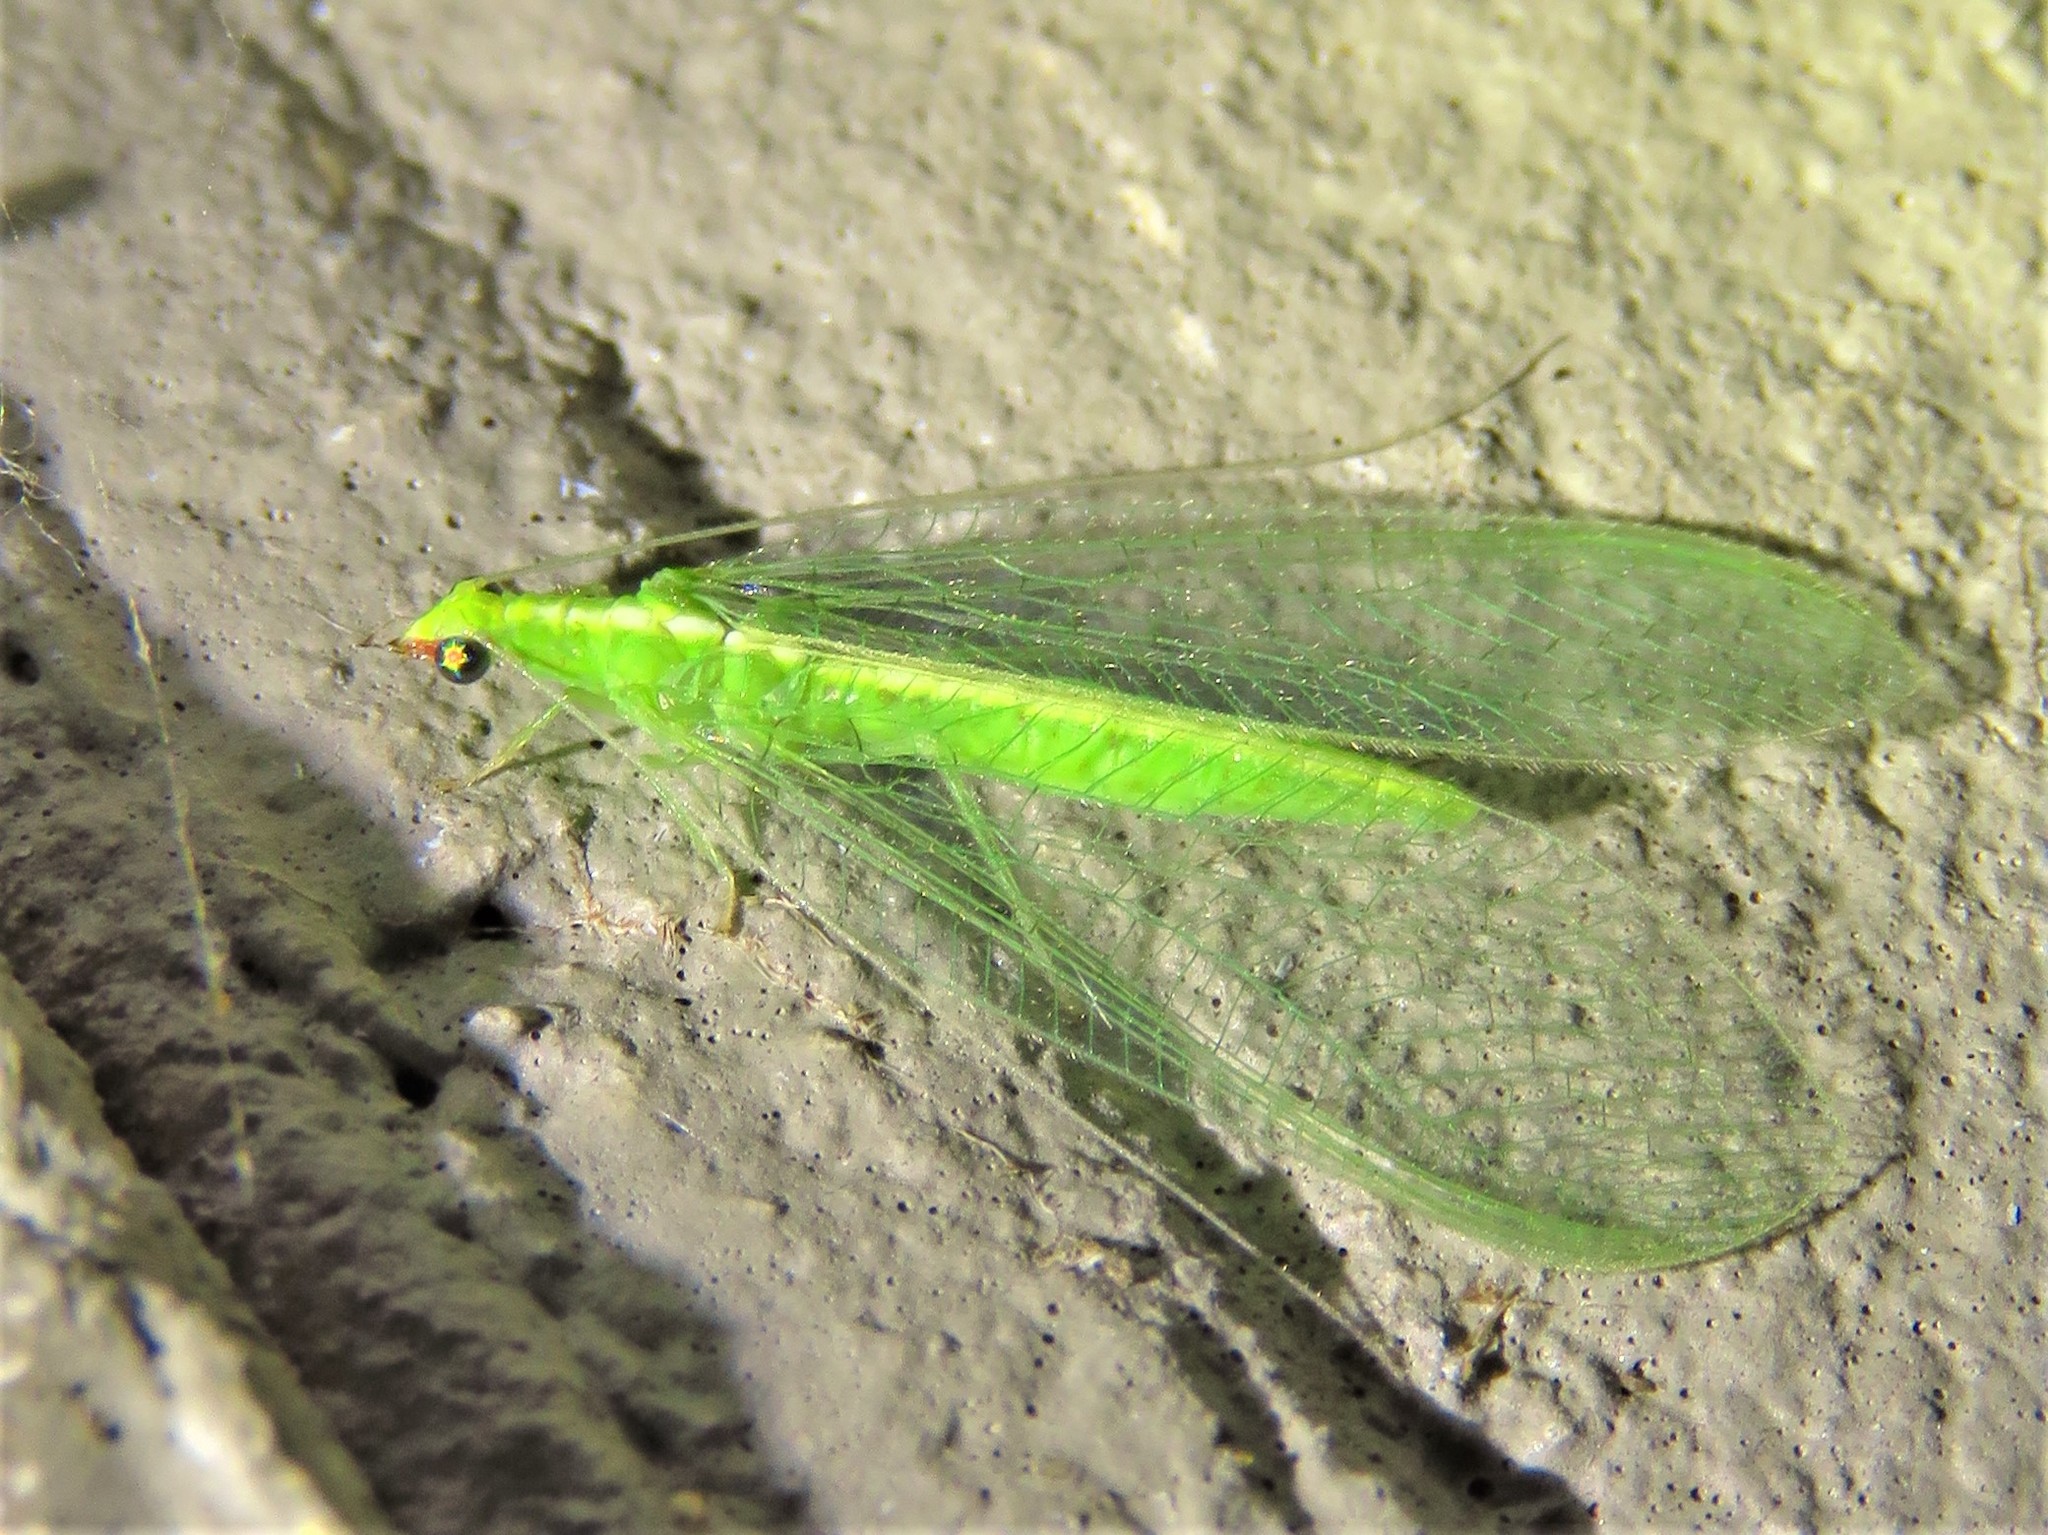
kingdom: Animalia
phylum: Arthropoda
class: Insecta
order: Neuroptera
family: Chrysopidae
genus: Chrysoperla
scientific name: Chrysoperla rufilabris
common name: Red-lipped green lacewing
